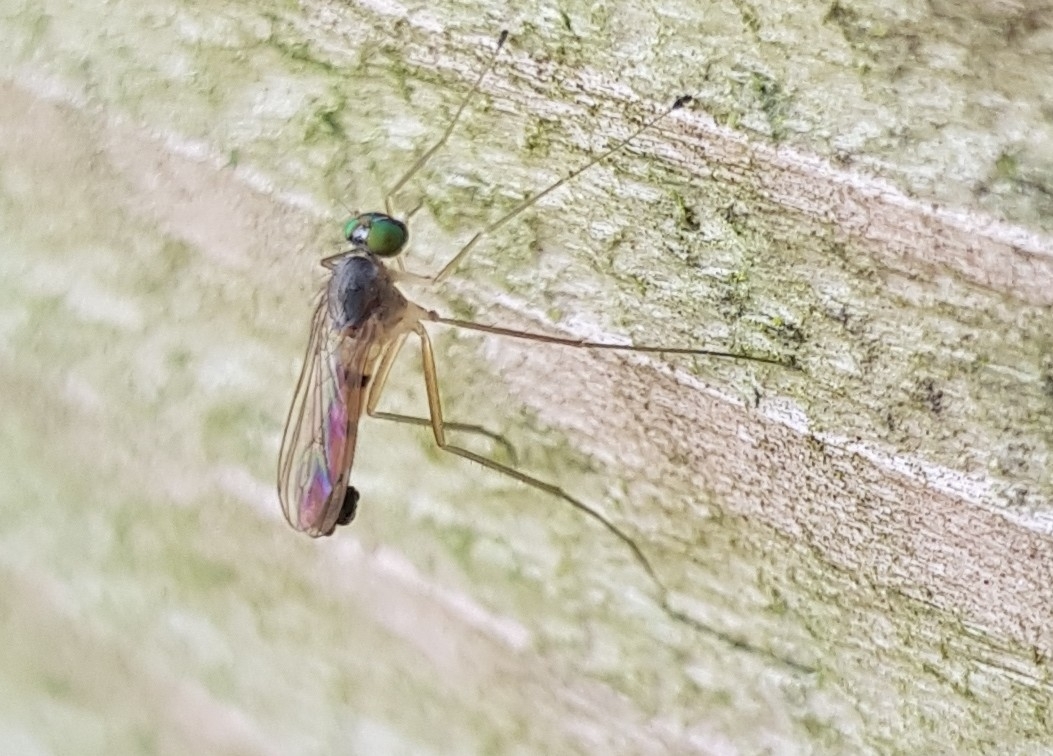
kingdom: Animalia
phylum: Arthropoda
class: Insecta
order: Diptera
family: Dolichopodidae
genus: Neurigona
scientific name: Neurigona quadrifasciata
